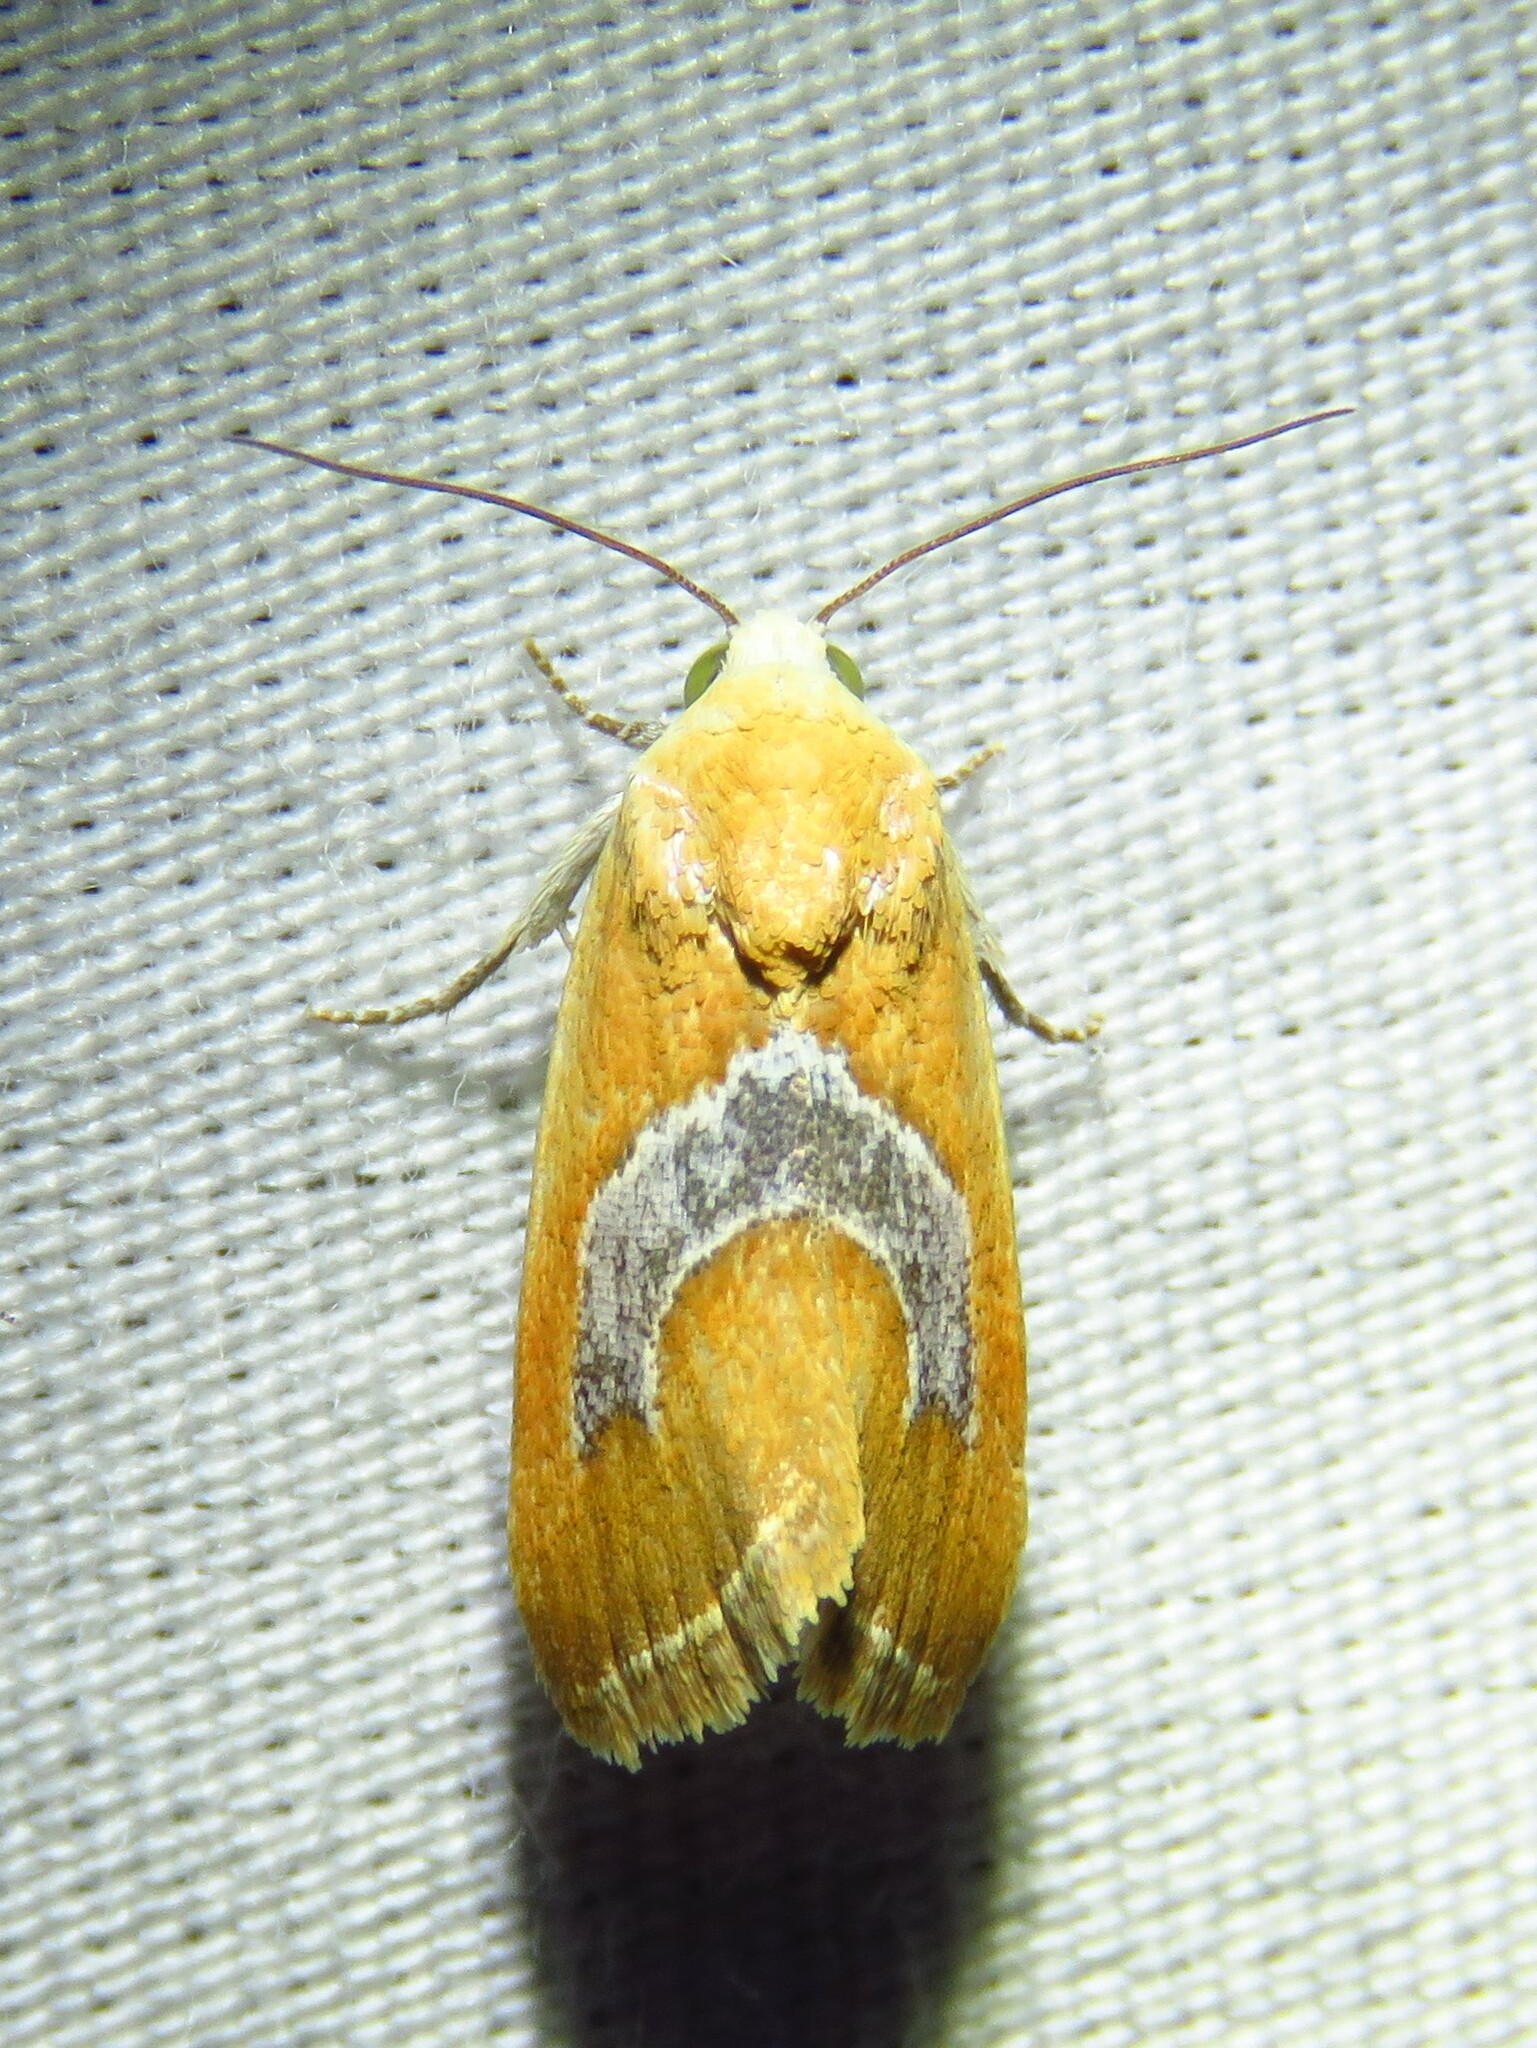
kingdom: Animalia
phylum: Arthropoda
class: Insecta
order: Lepidoptera
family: Noctuidae
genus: Ponometia
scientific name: Ponometia venustula
